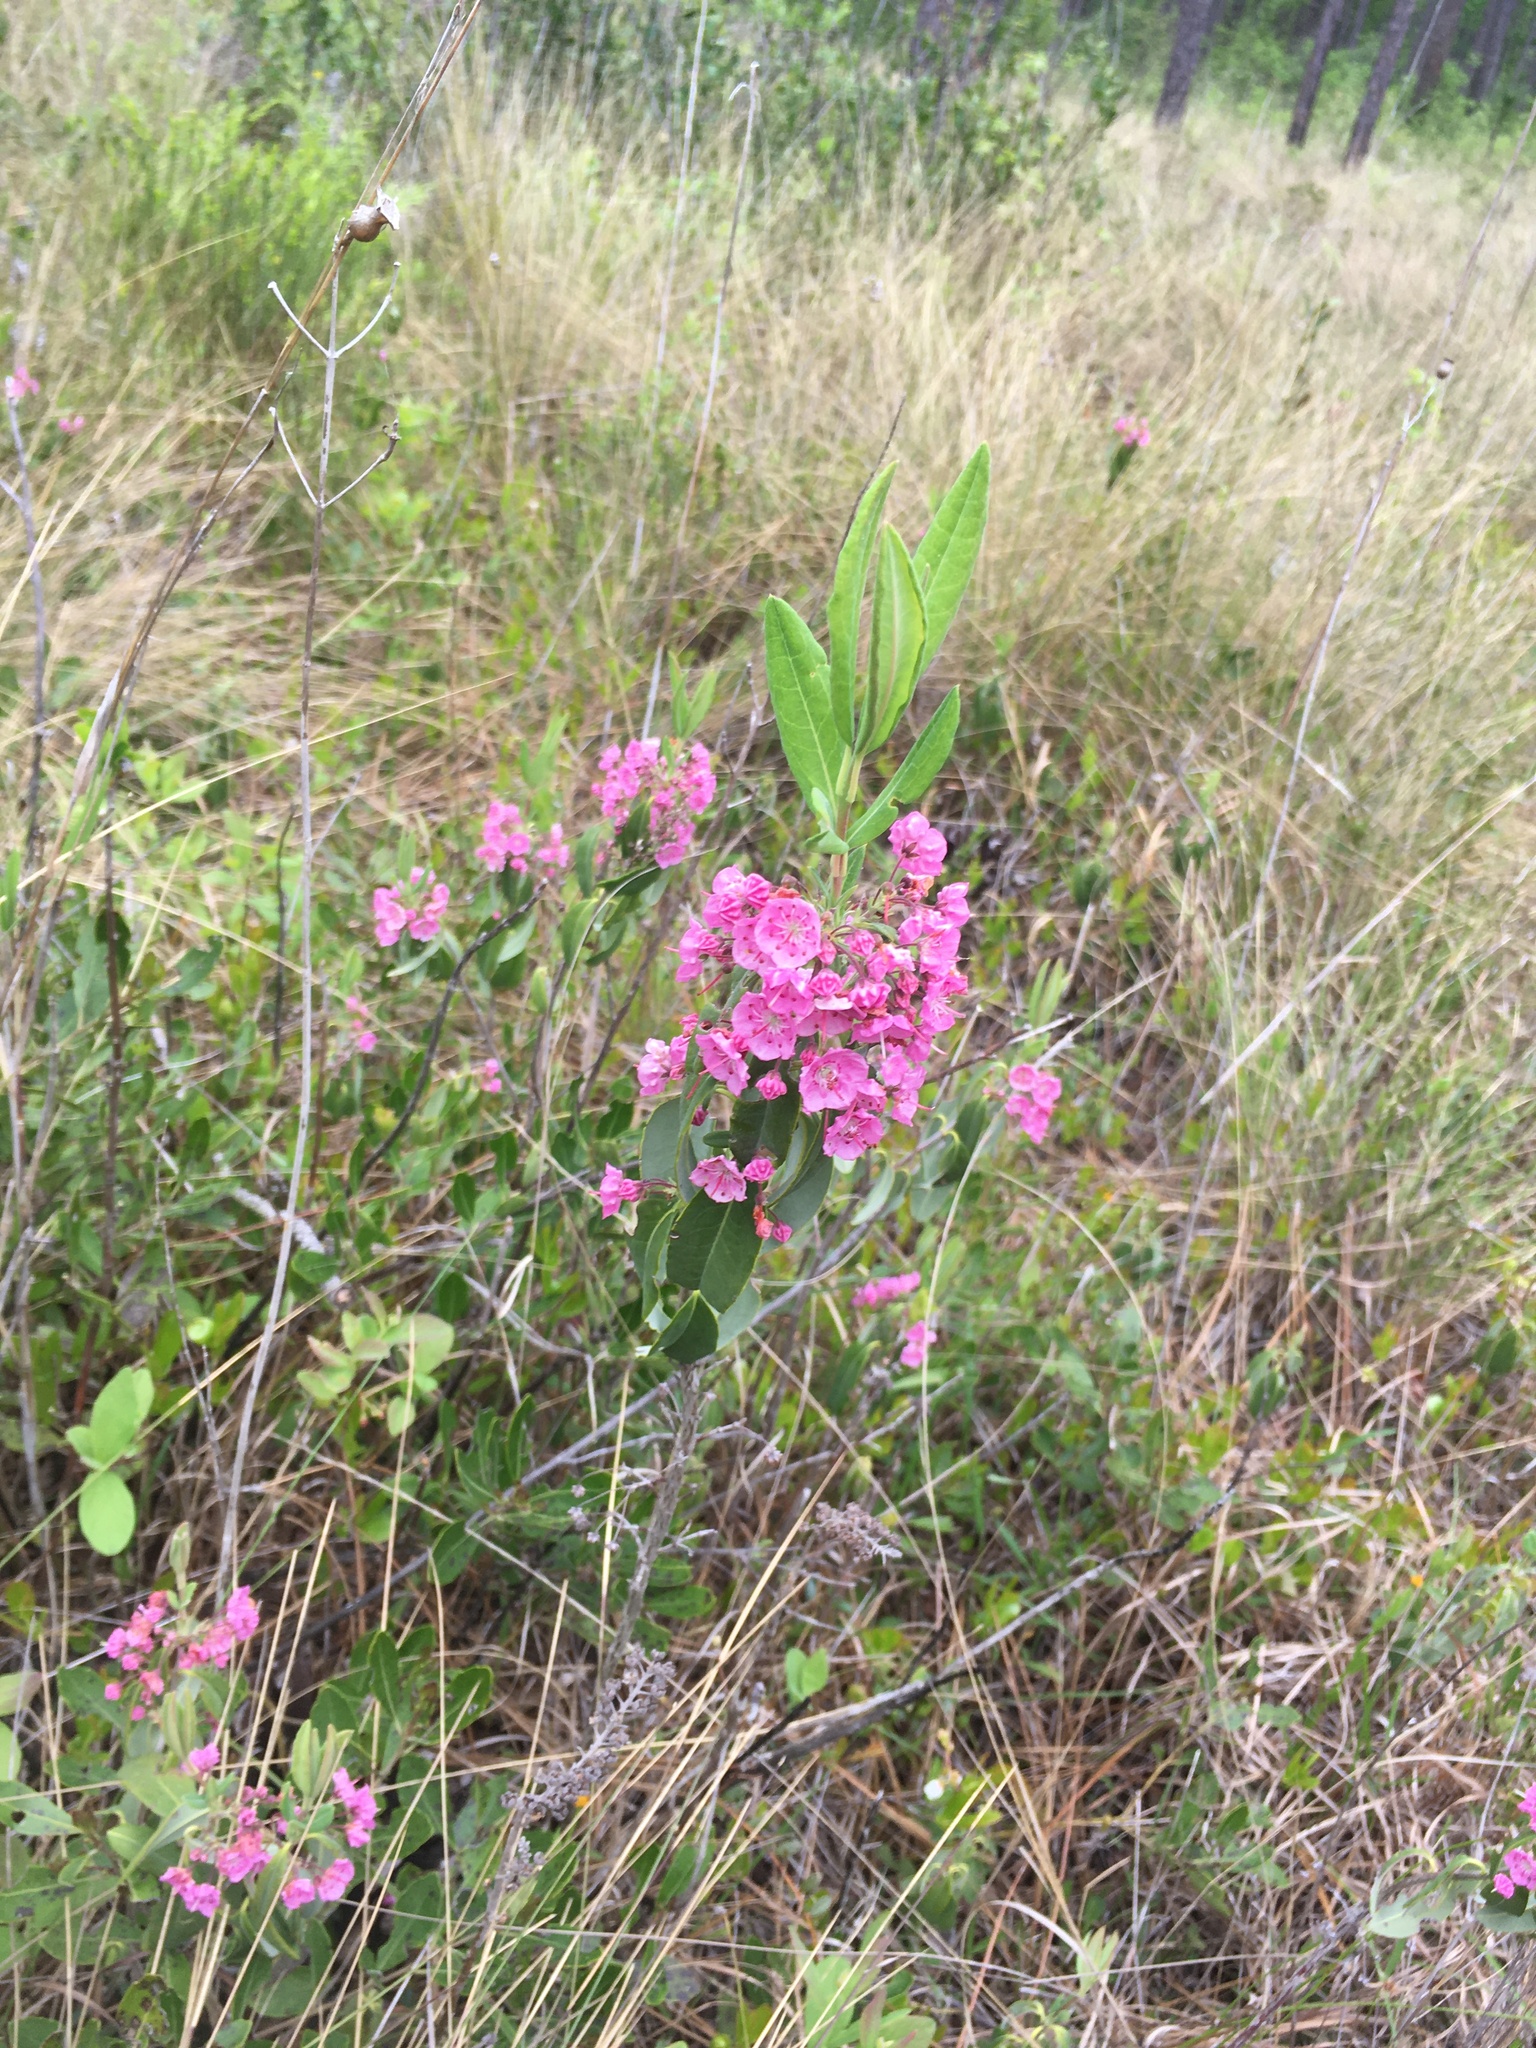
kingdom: Plantae
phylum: Tracheophyta
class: Magnoliopsida
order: Ericales
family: Ericaceae
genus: Kalmia
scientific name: Kalmia angustifolia
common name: Sheep-laurel
